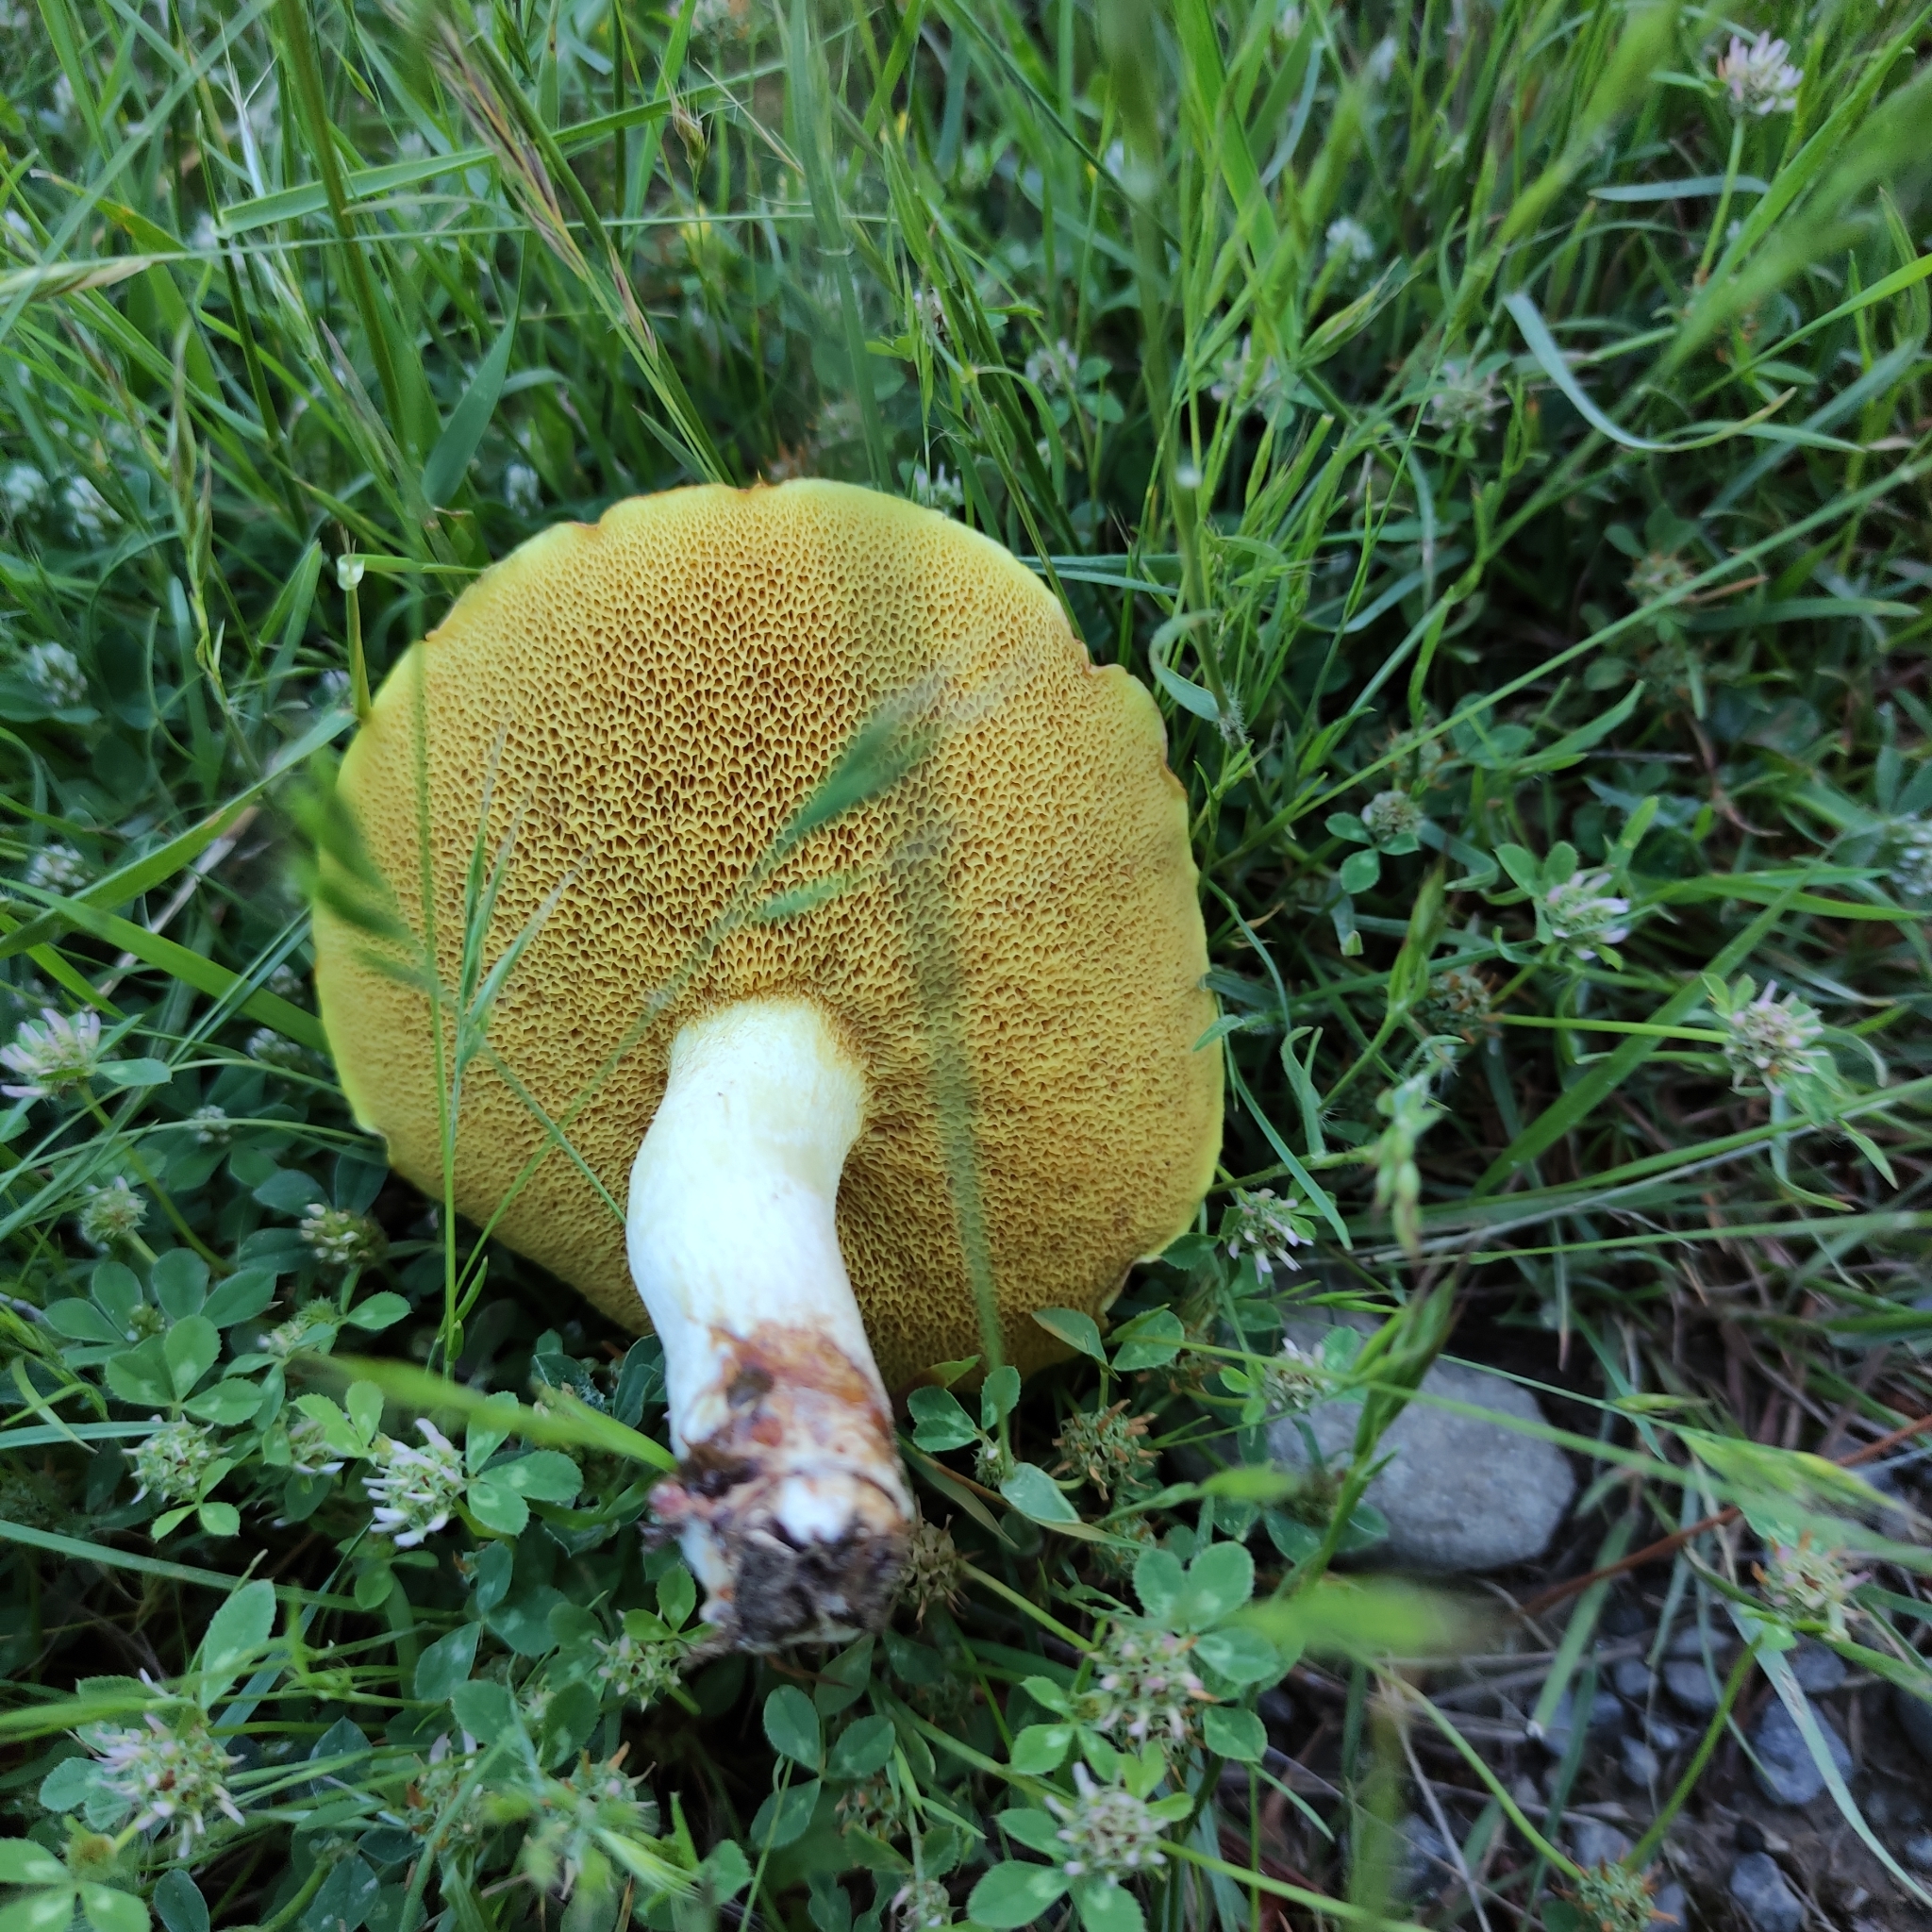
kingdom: Fungi
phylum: Basidiomycota
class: Agaricomycetes
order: Boletales
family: Suillaceae
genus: Suillus
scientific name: Suillus granulatus
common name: Weeping bolete
